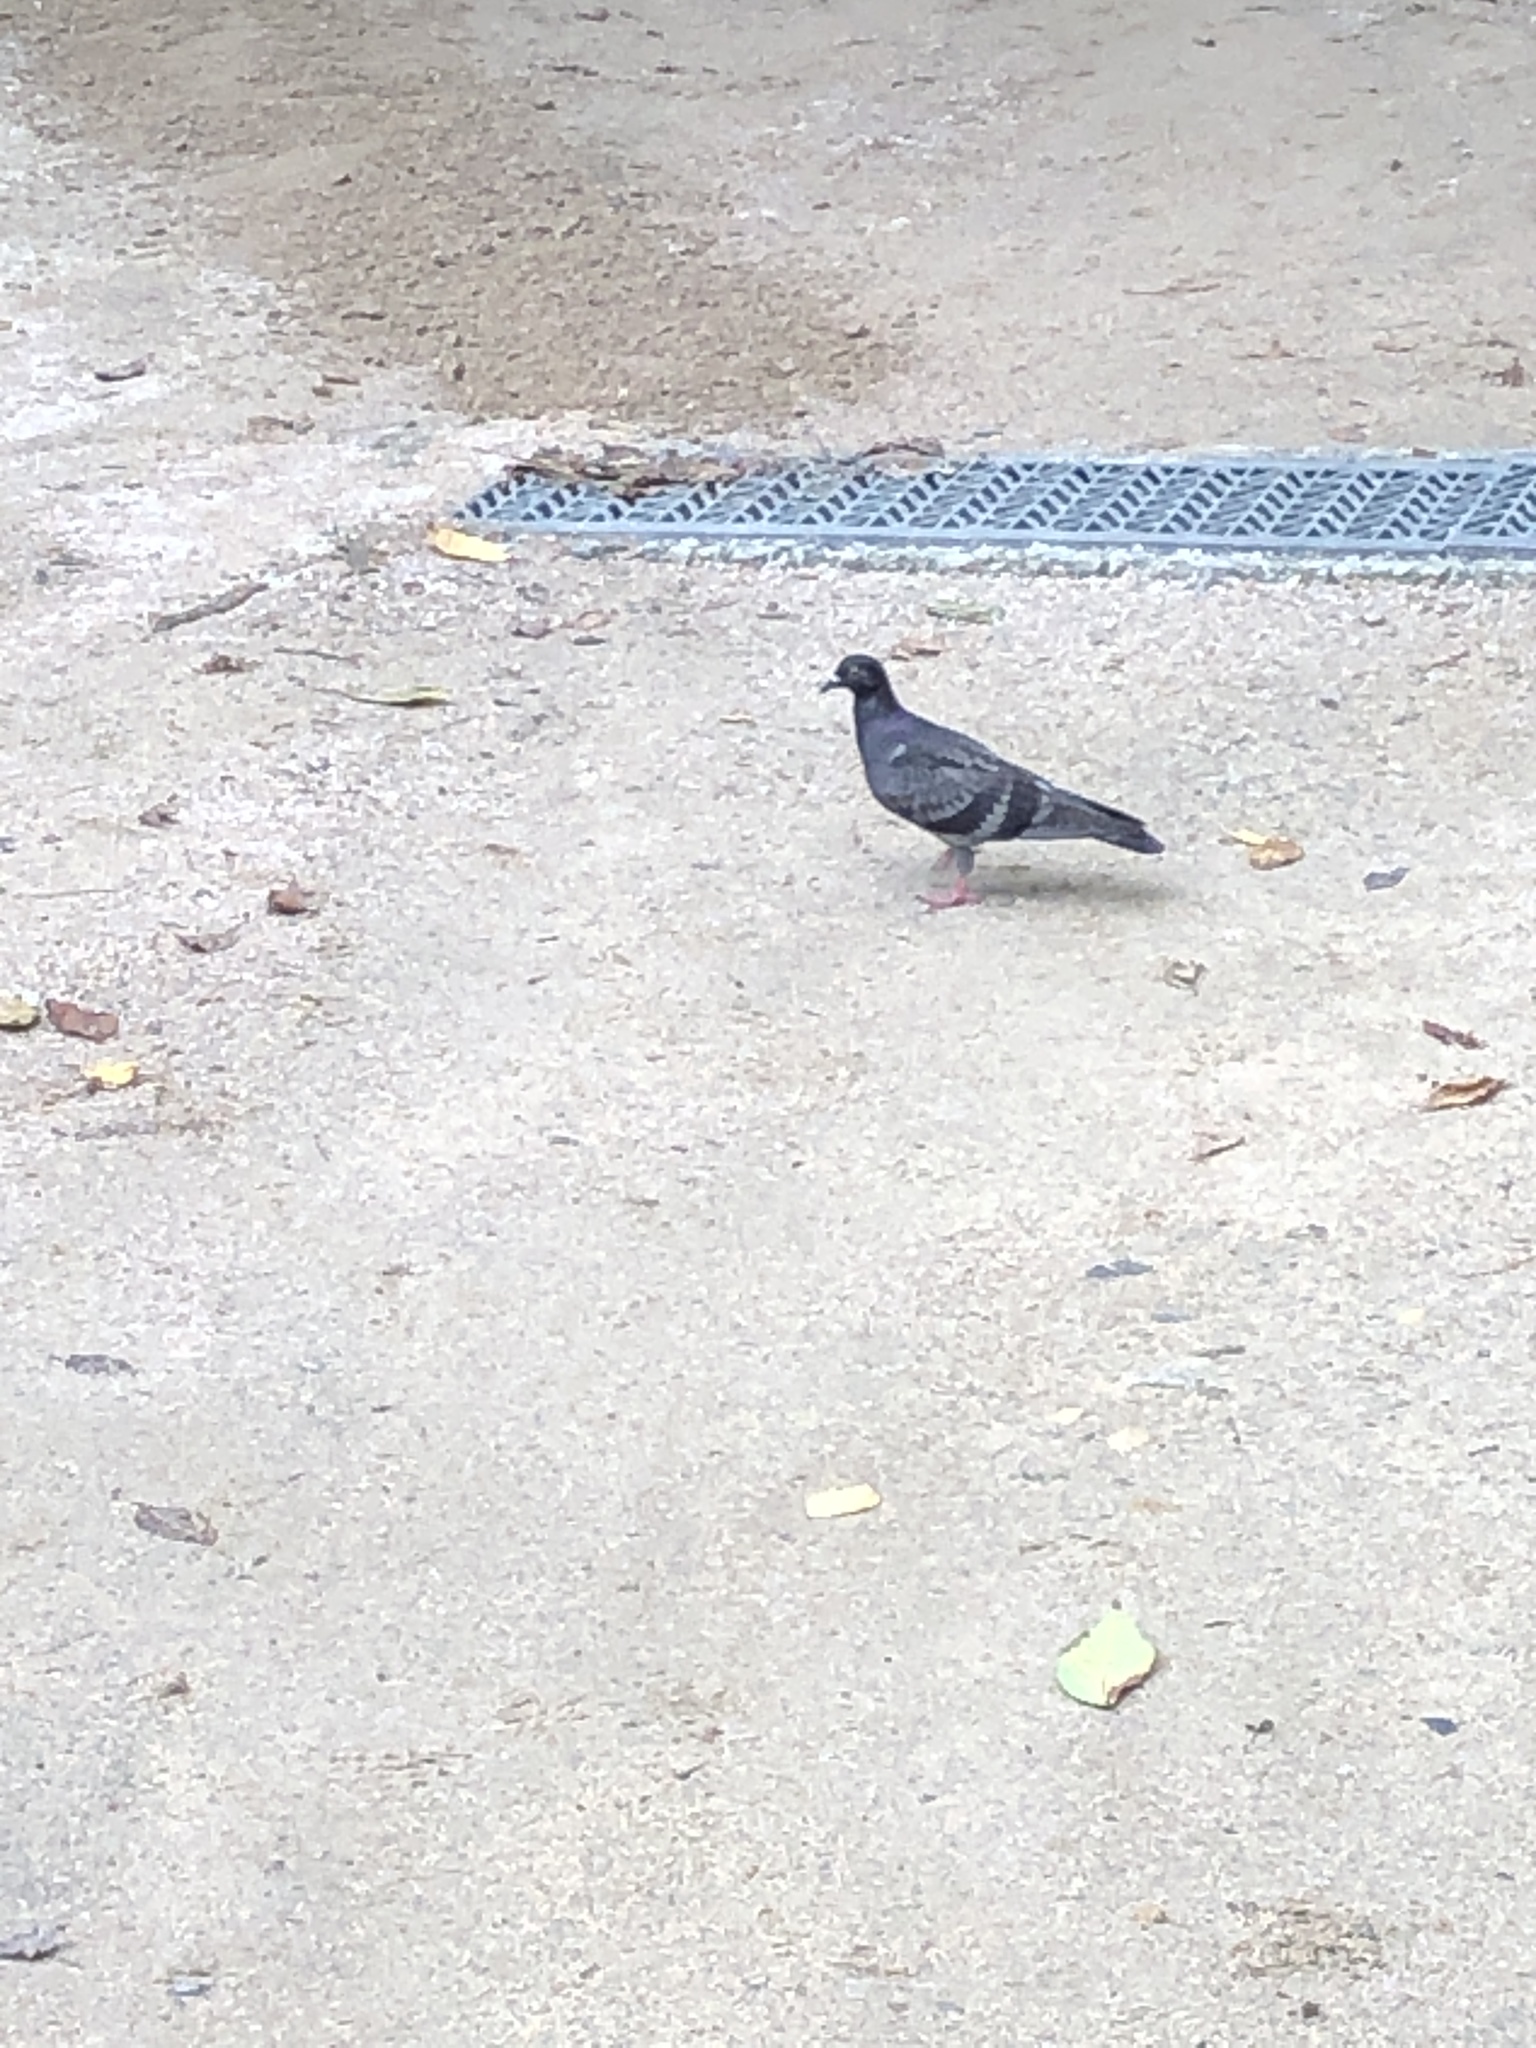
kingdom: Animalia
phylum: Chordata
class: Aves
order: Columbiformes
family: Columbidae
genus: Columba
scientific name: Columba livia
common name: Rock pigeon
